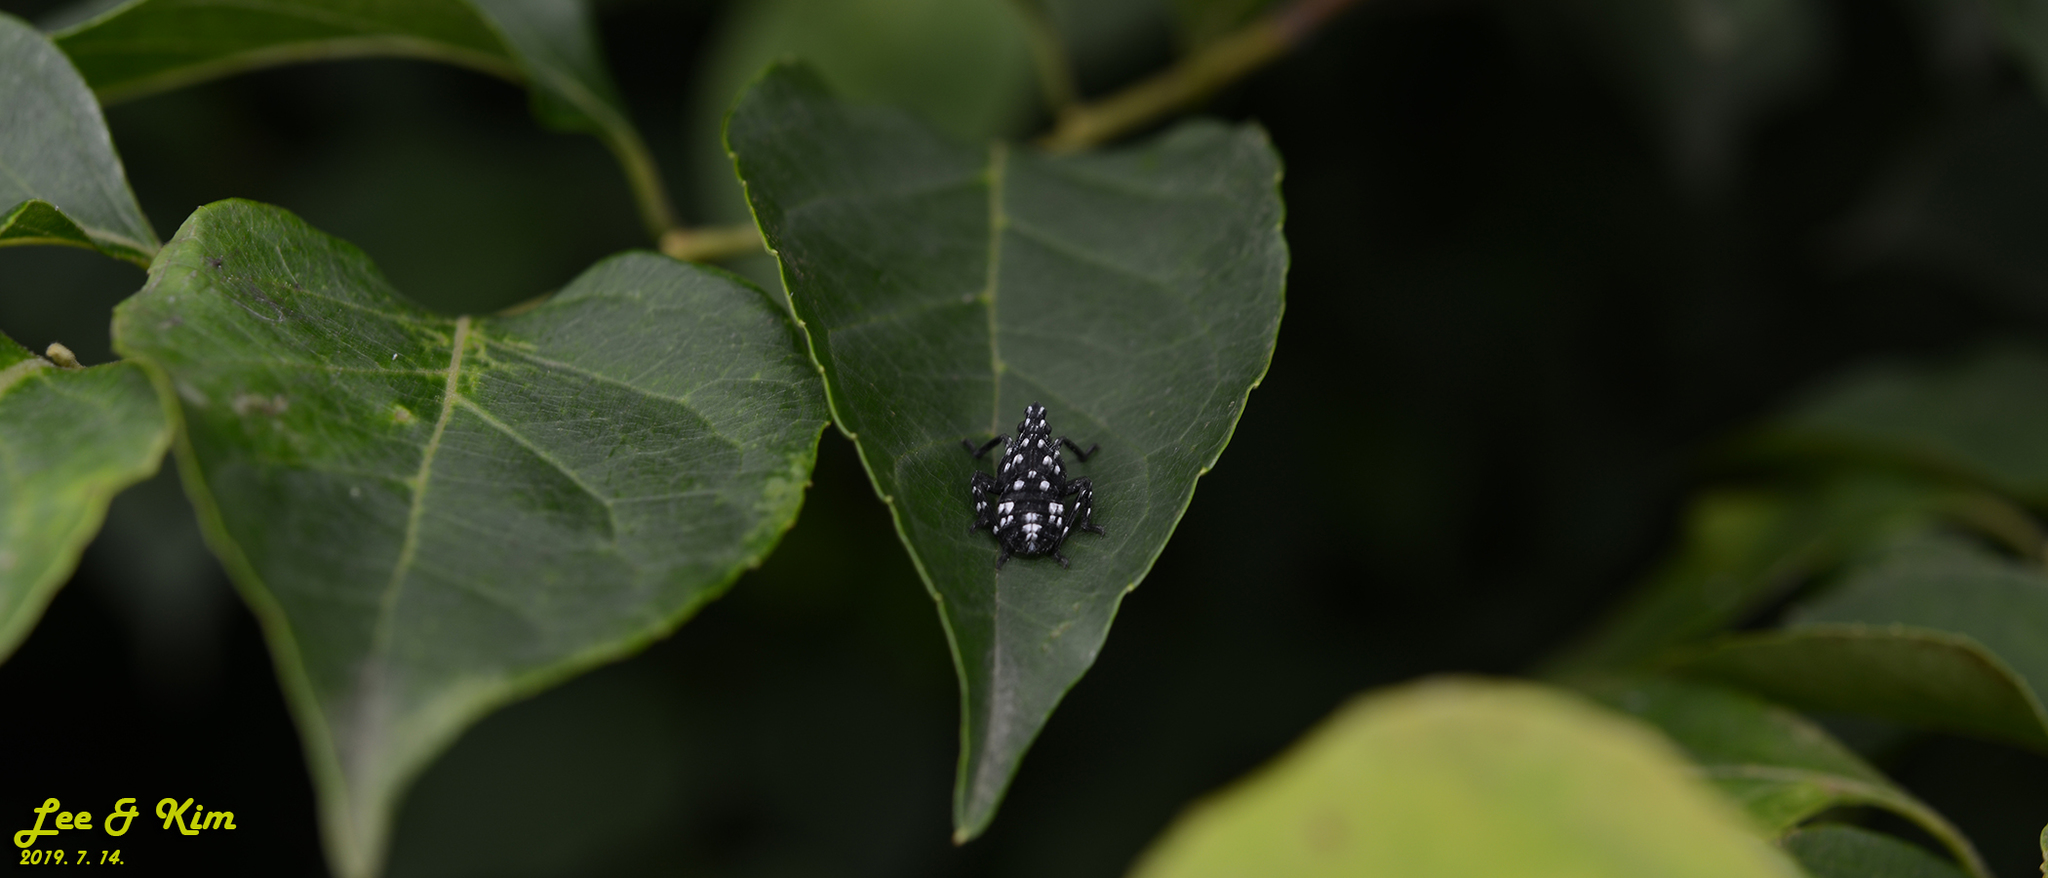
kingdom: Animalia
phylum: Arthropoda
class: Insecta
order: Hemiptera
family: Fulgoridae
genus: Lycorma
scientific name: Lycorma delicatula
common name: Spotted lanternfly
